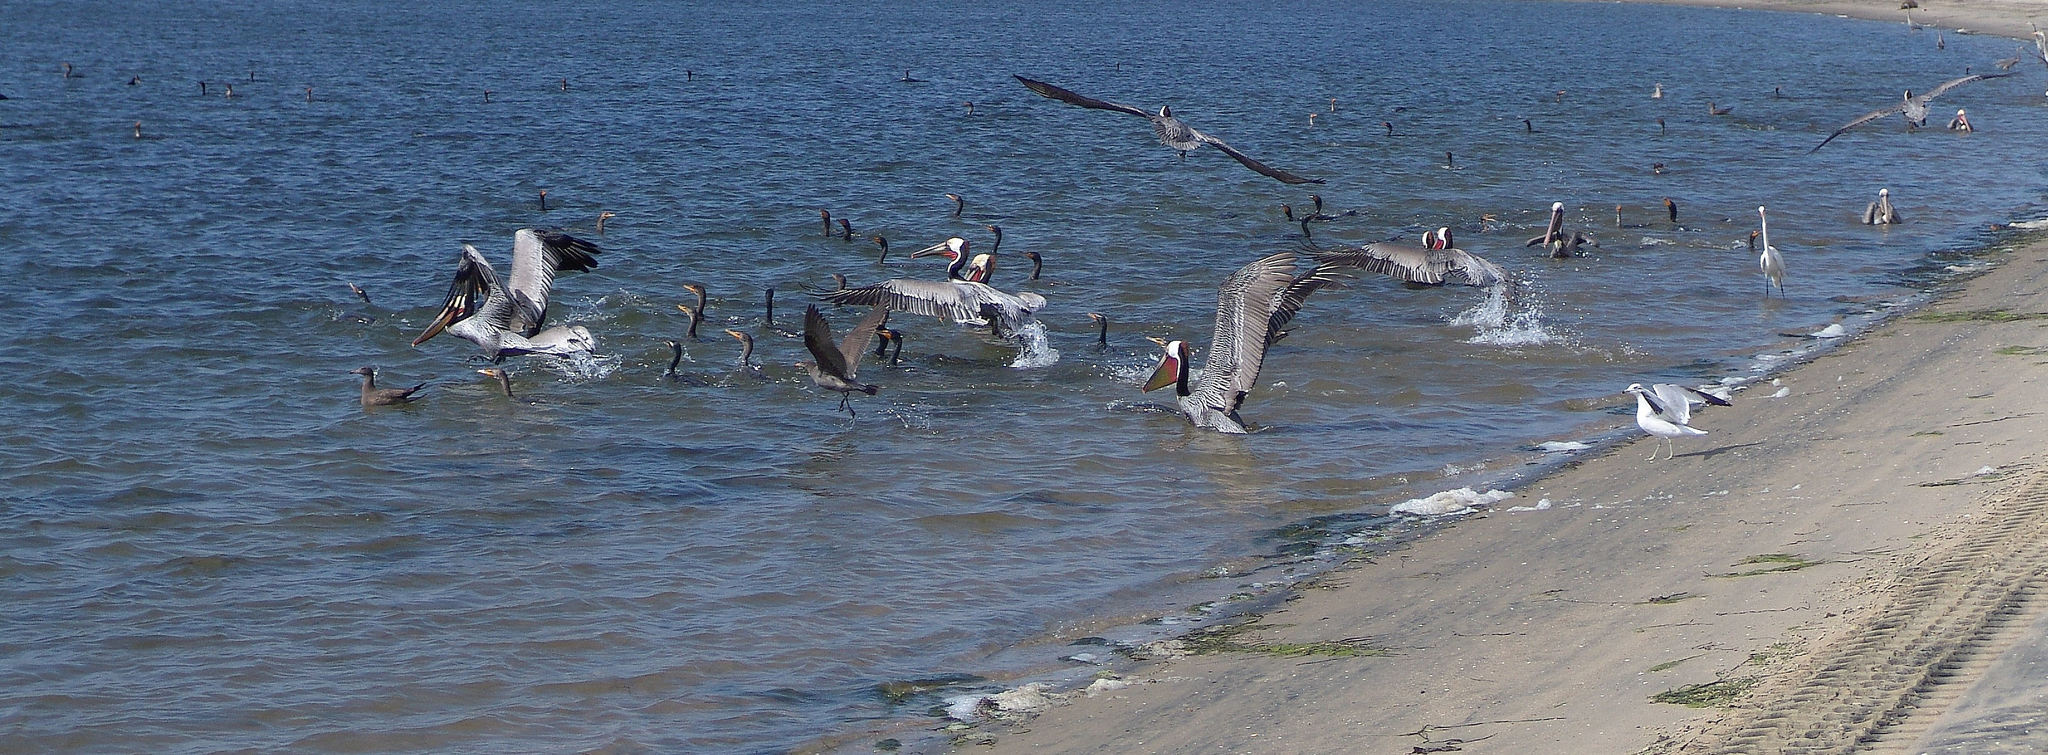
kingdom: Animalia
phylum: Chordata
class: Aves
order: Suliformes
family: Phalacrocoracidae
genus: Phalacrocorax
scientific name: Phalacrocorax auritus
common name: Double-crested cormorant
